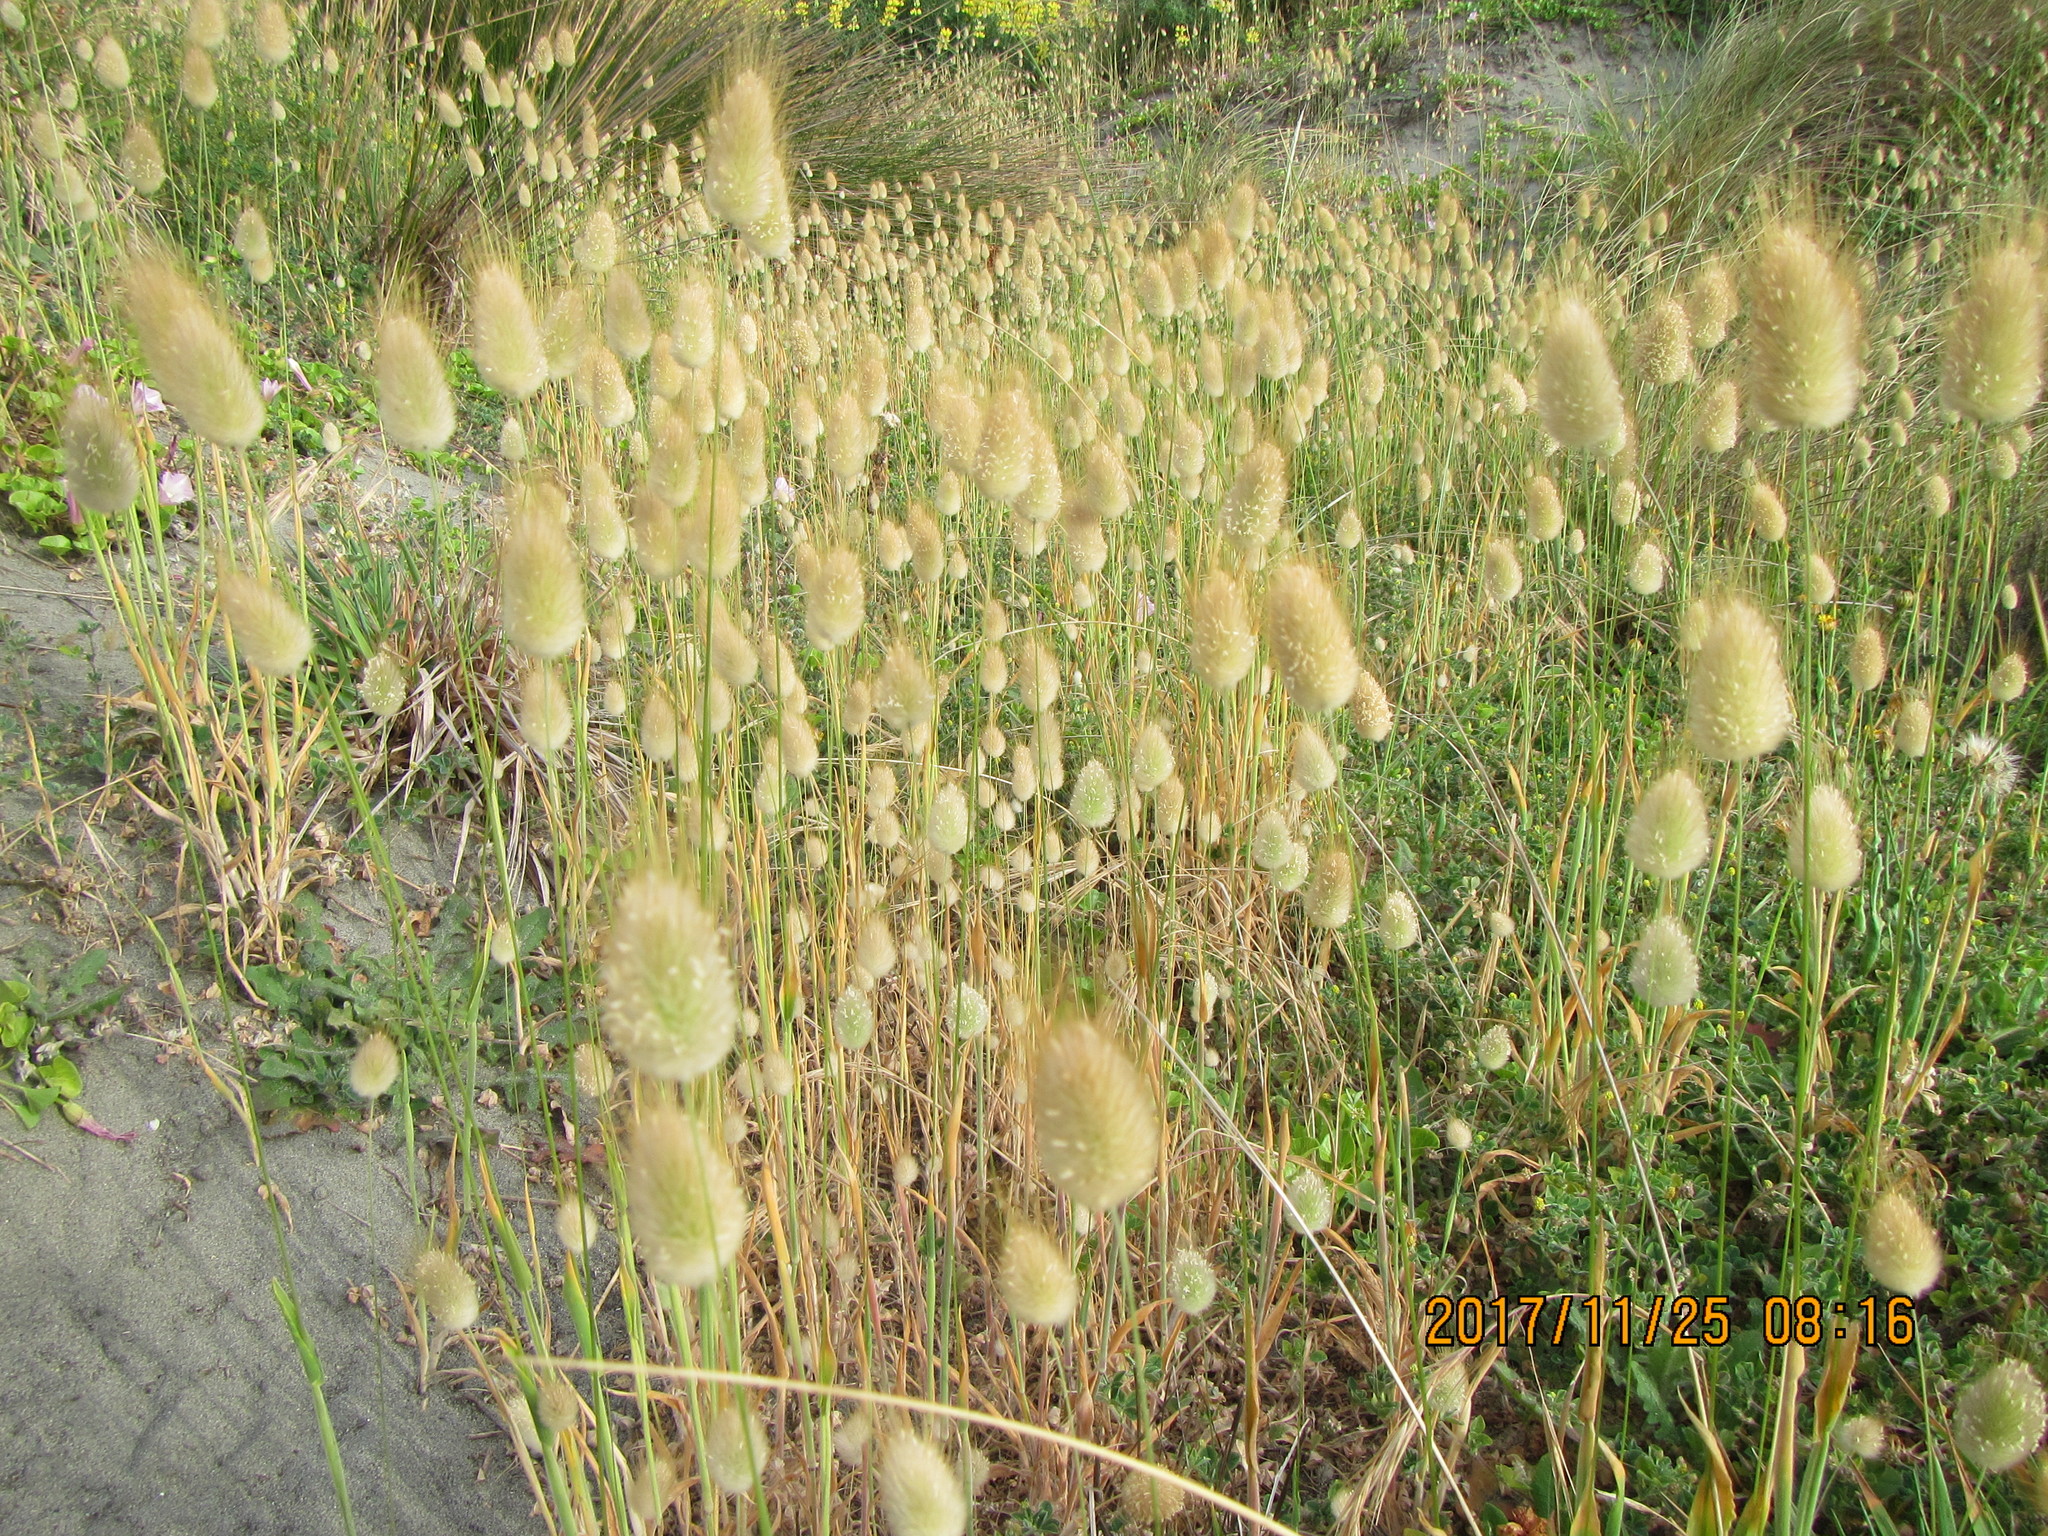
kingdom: Plantae
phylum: Tracheophyta
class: Liliopsida
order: Poales
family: Poaceae
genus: Lagurus
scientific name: Lagurus ovatus
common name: Hare's-tail
